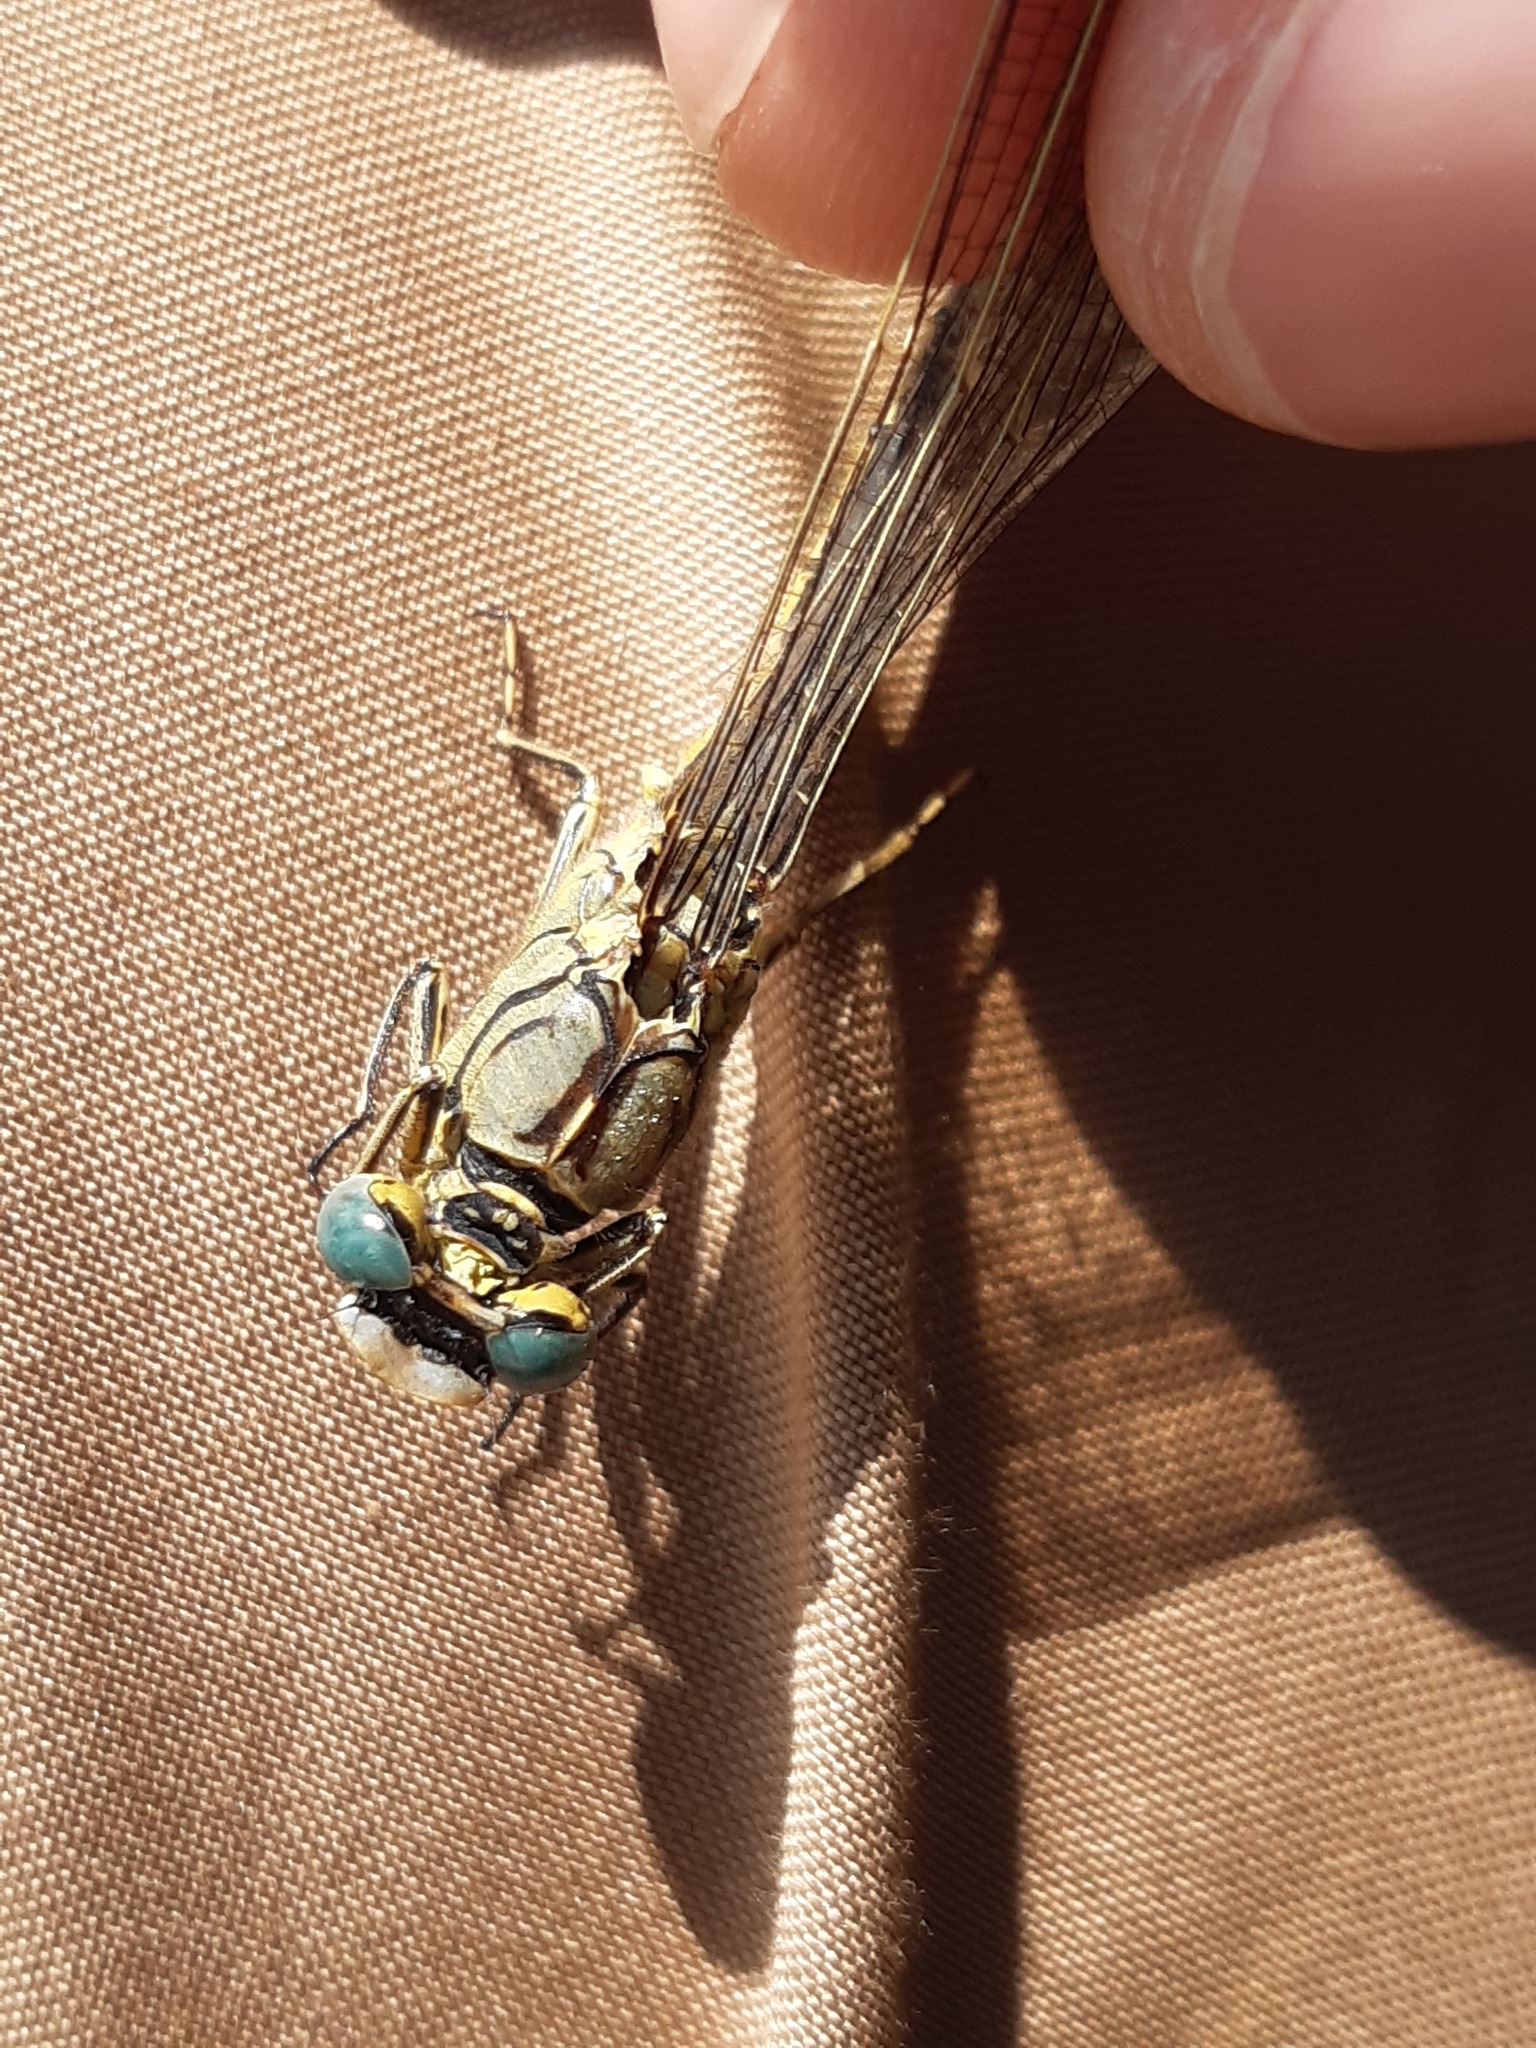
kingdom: Animalia
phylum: Arthropoda
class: Insecta
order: Odonata
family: Gomphidae
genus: Gomphus
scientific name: Gomphus pulchellus
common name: Western clubtail
